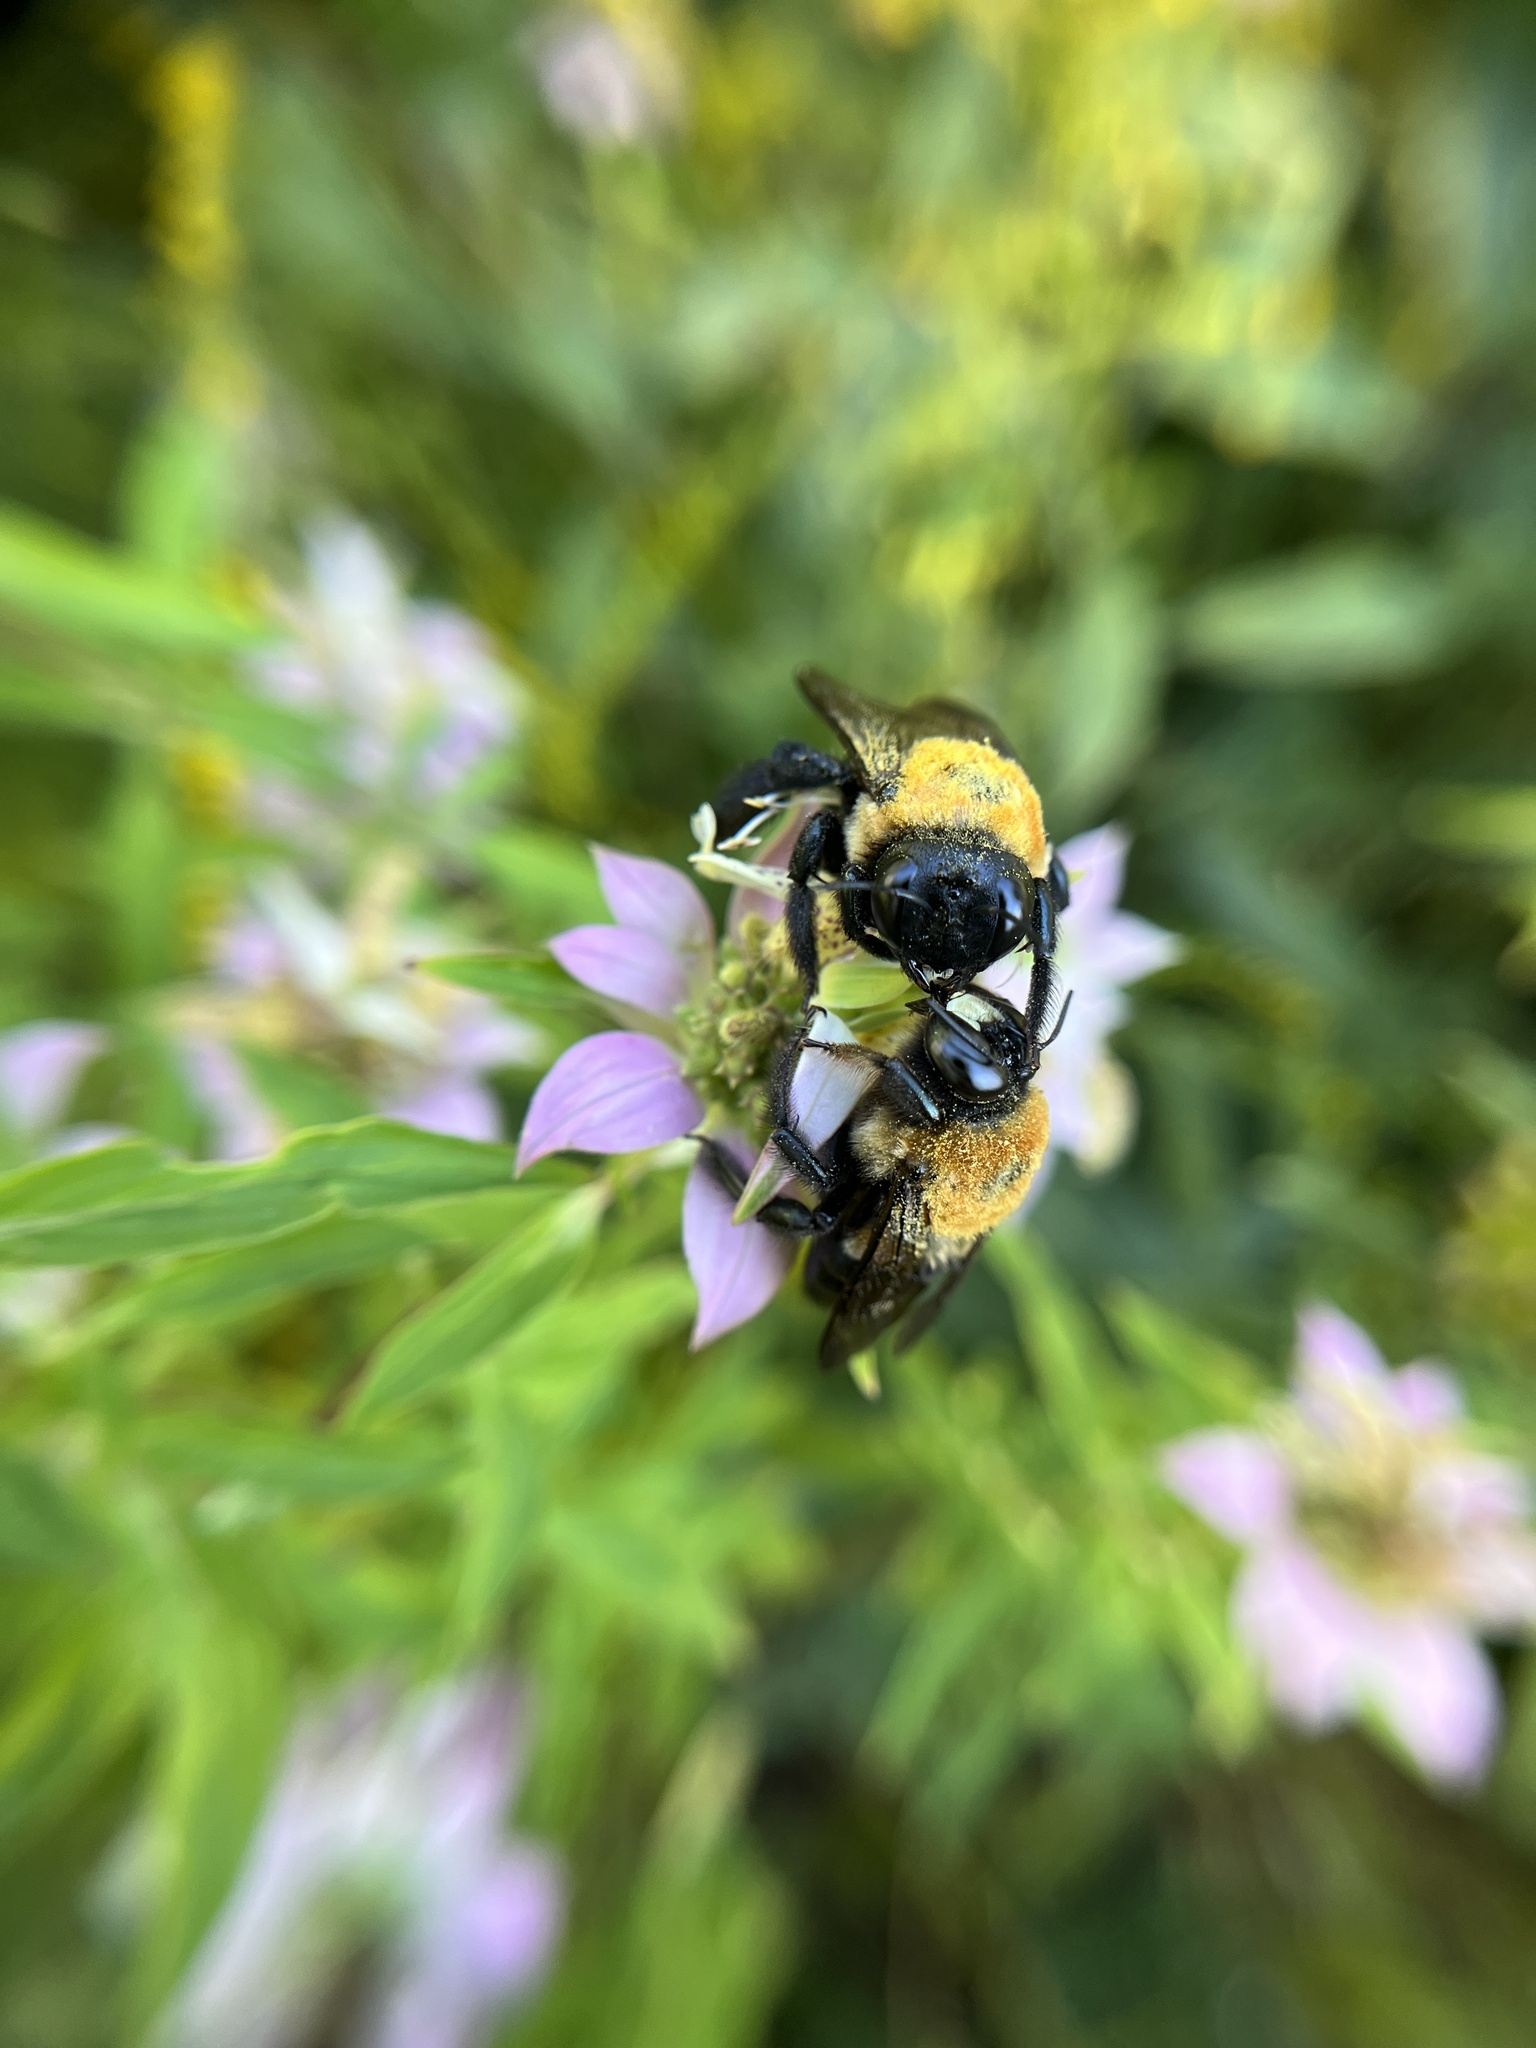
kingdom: Animalia
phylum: Arthropoda
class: Insecta
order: Hymenoptera
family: Apidae
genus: Xylocopa
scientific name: Xylocopa virginica
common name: Carpenter bee
